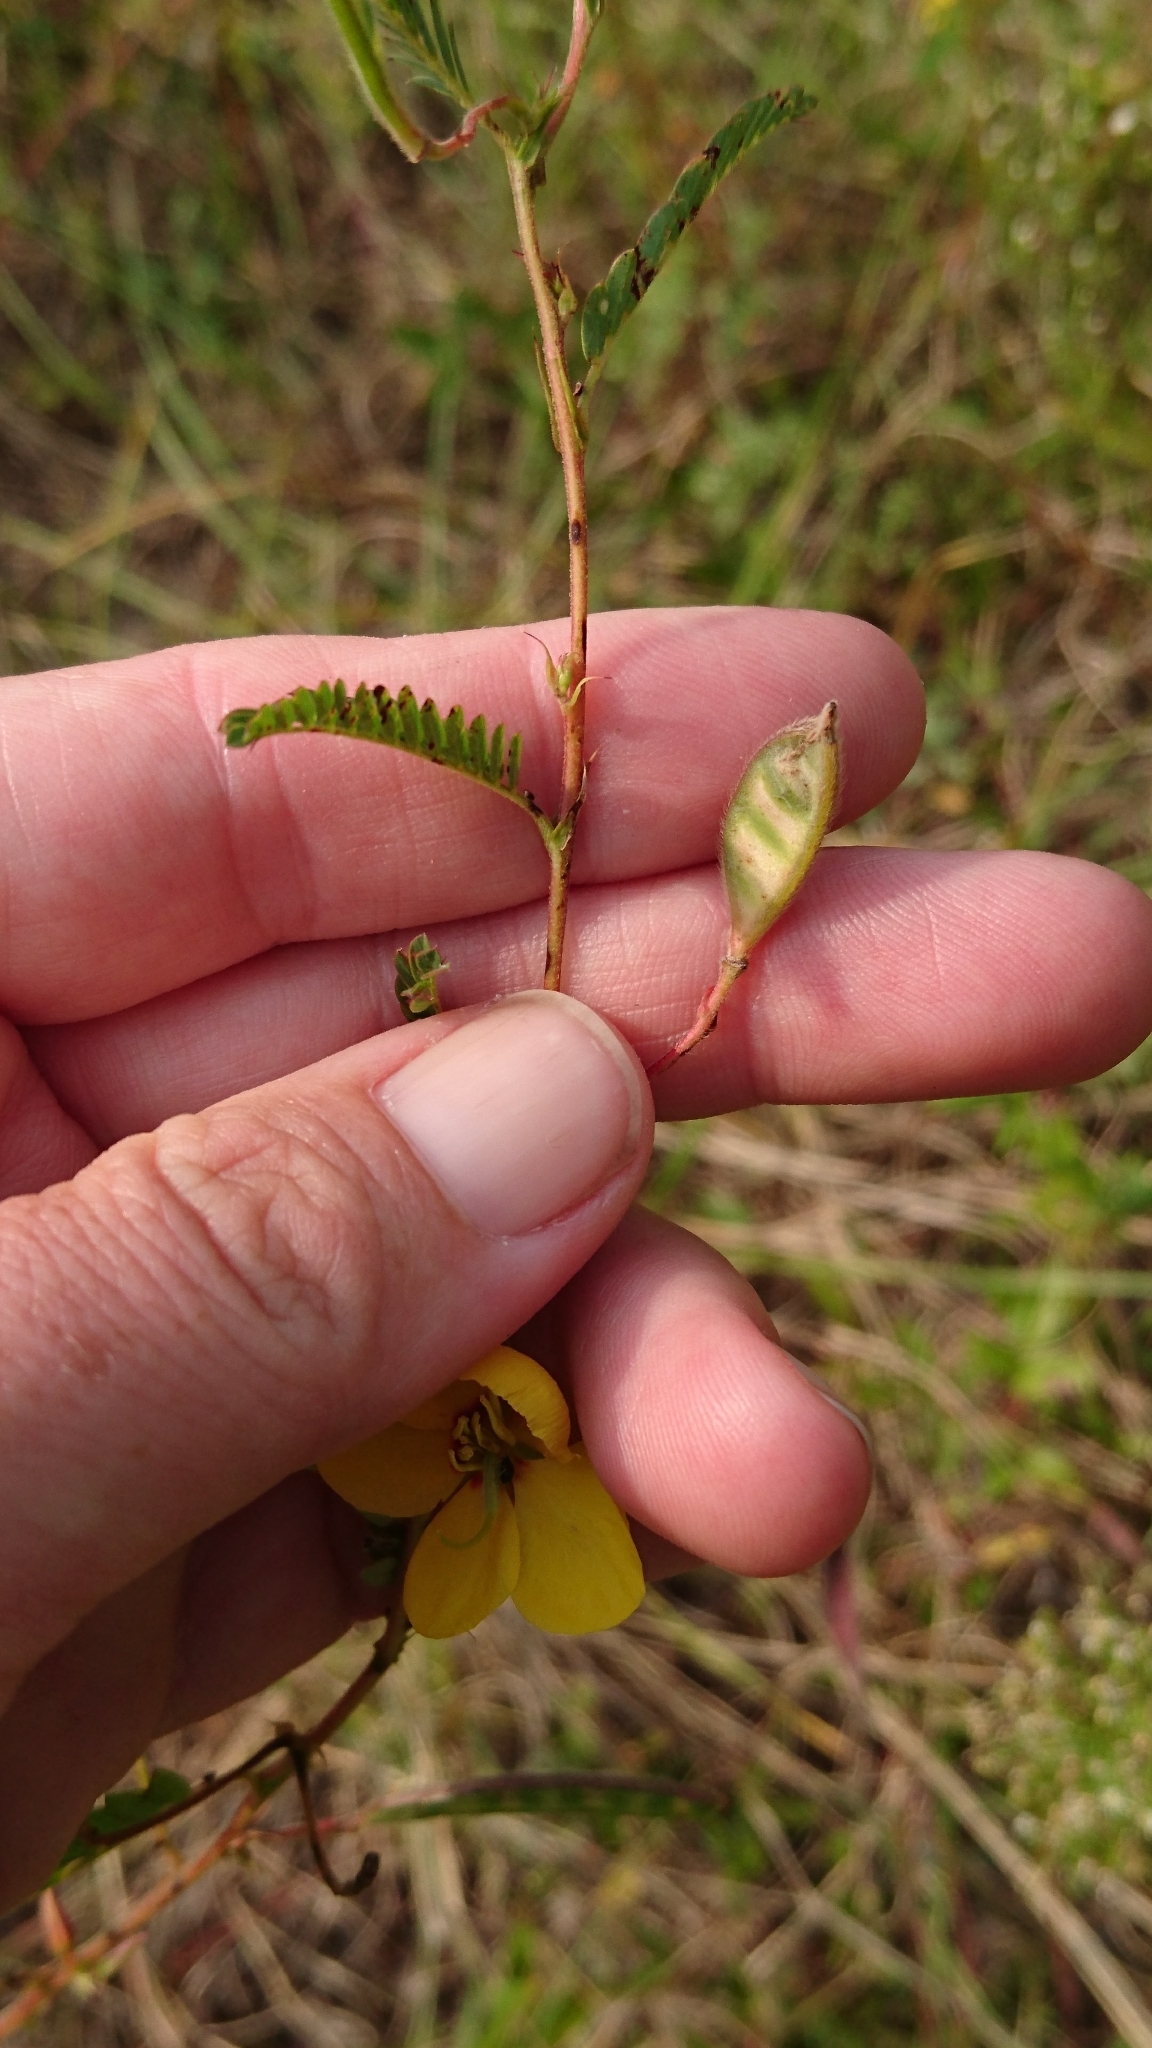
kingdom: Plantae
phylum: Tracheophyta
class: Magnoliopsida
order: Fabales
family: Fabaceae
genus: Chamaecrista
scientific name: Chamaecrista fasciculata
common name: Golden cassia
